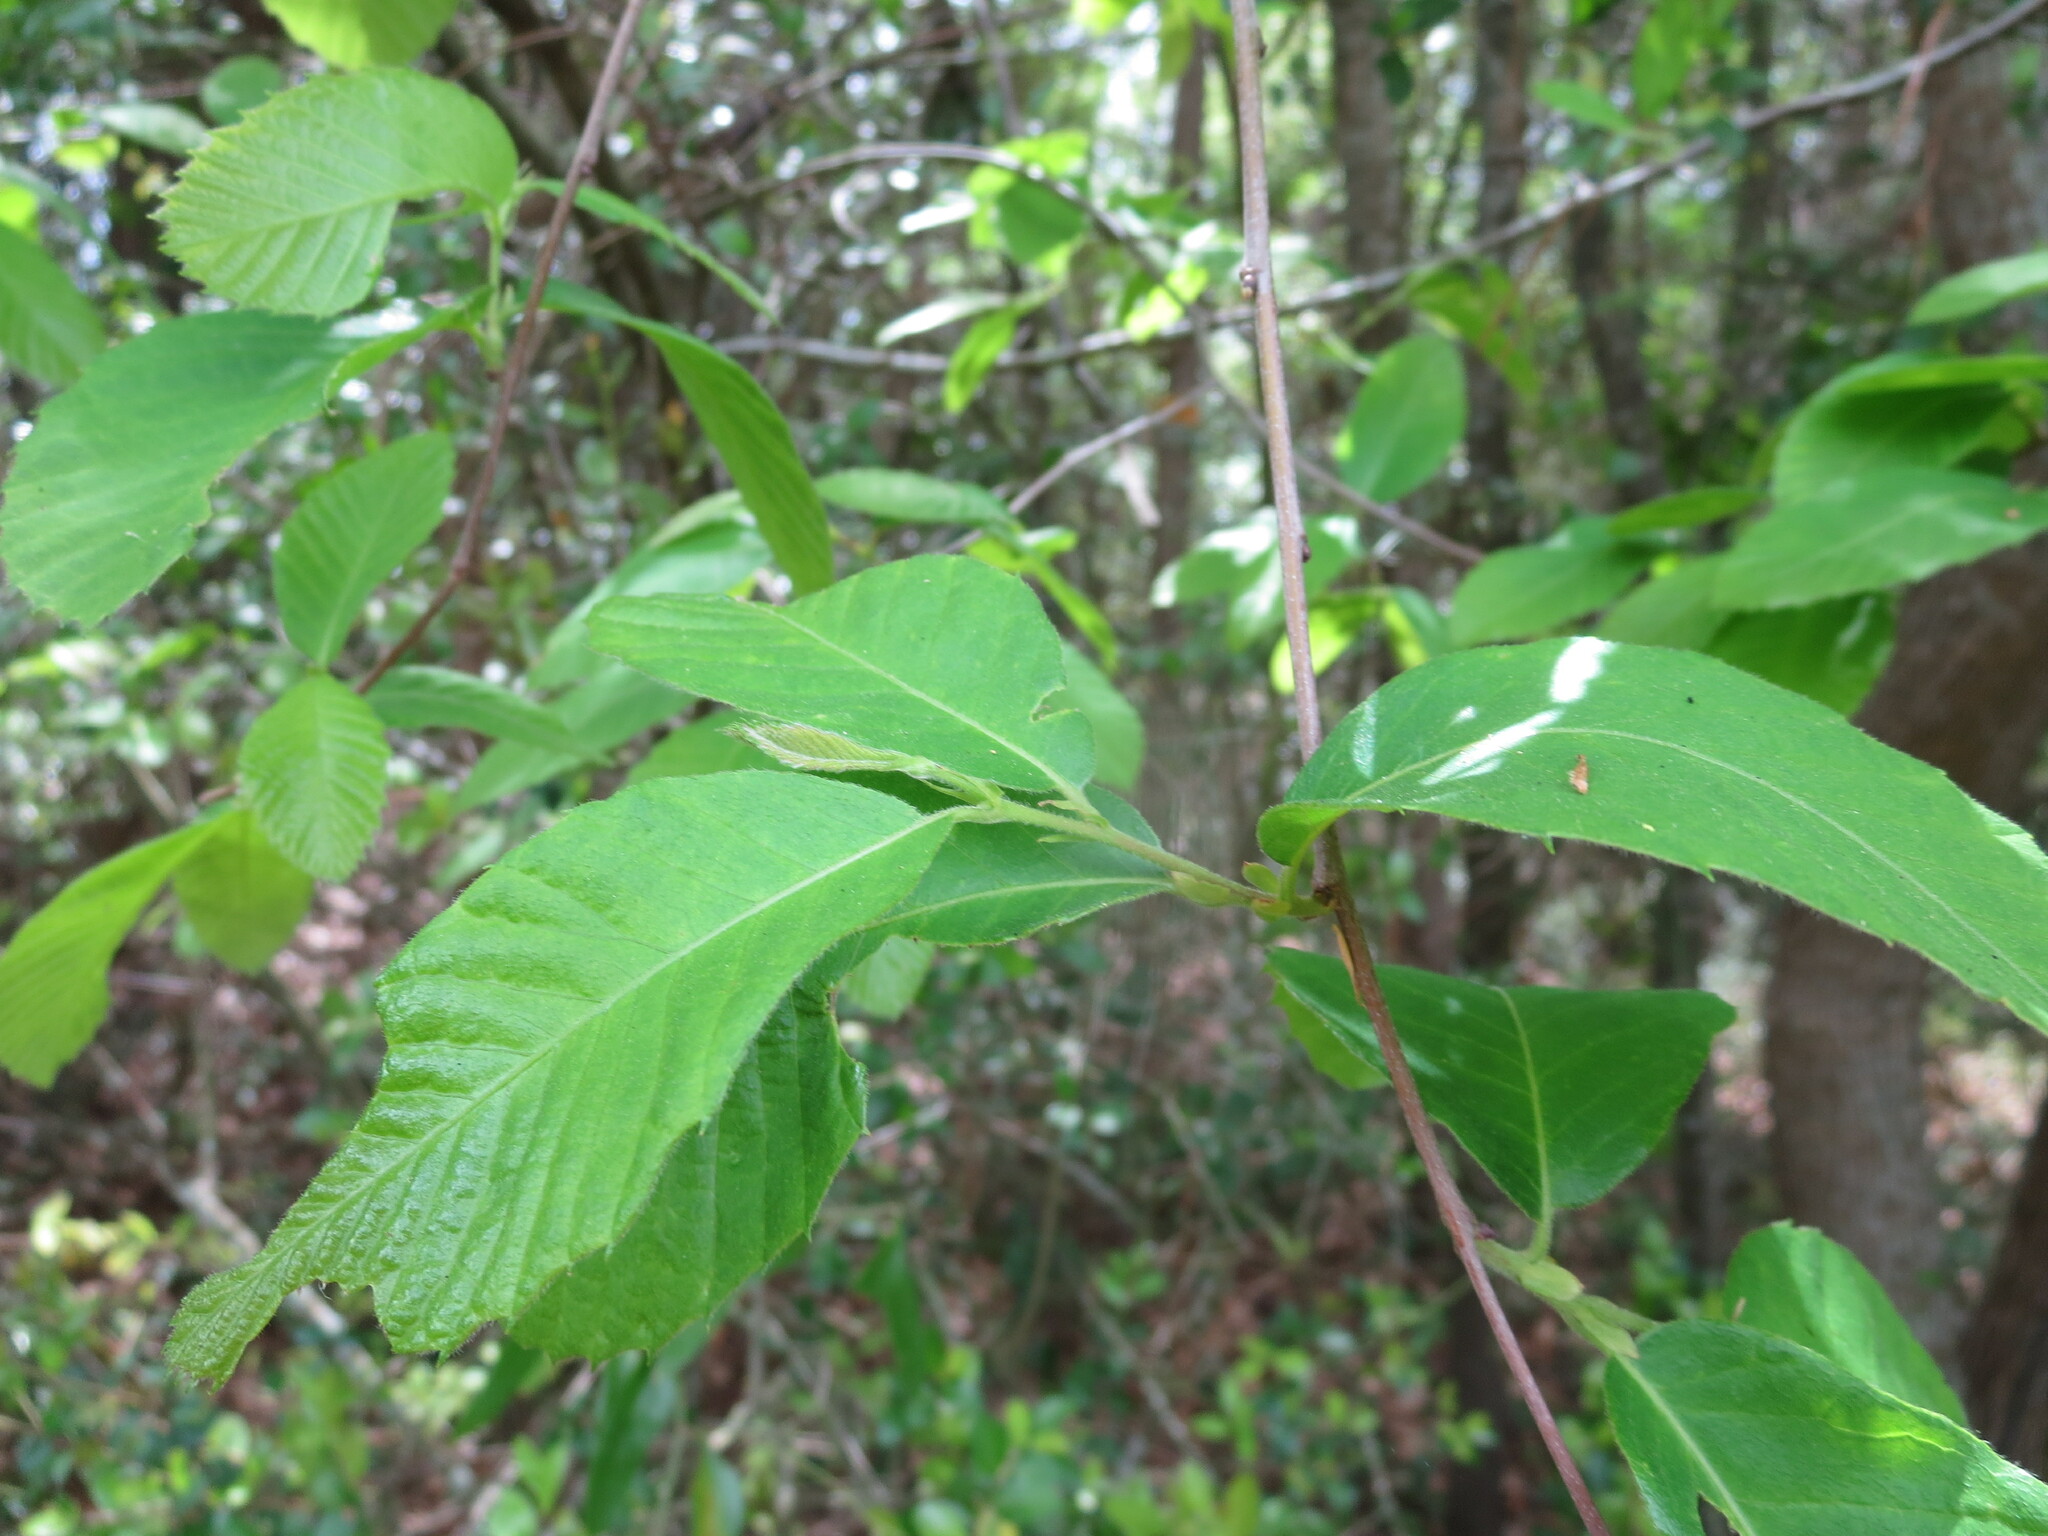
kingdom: Plantae
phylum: Tracheophyta
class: Magnoliopsida
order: Fagales
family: Fagaceae
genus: Castanea
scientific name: Castanea pumila
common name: Chinkapin
